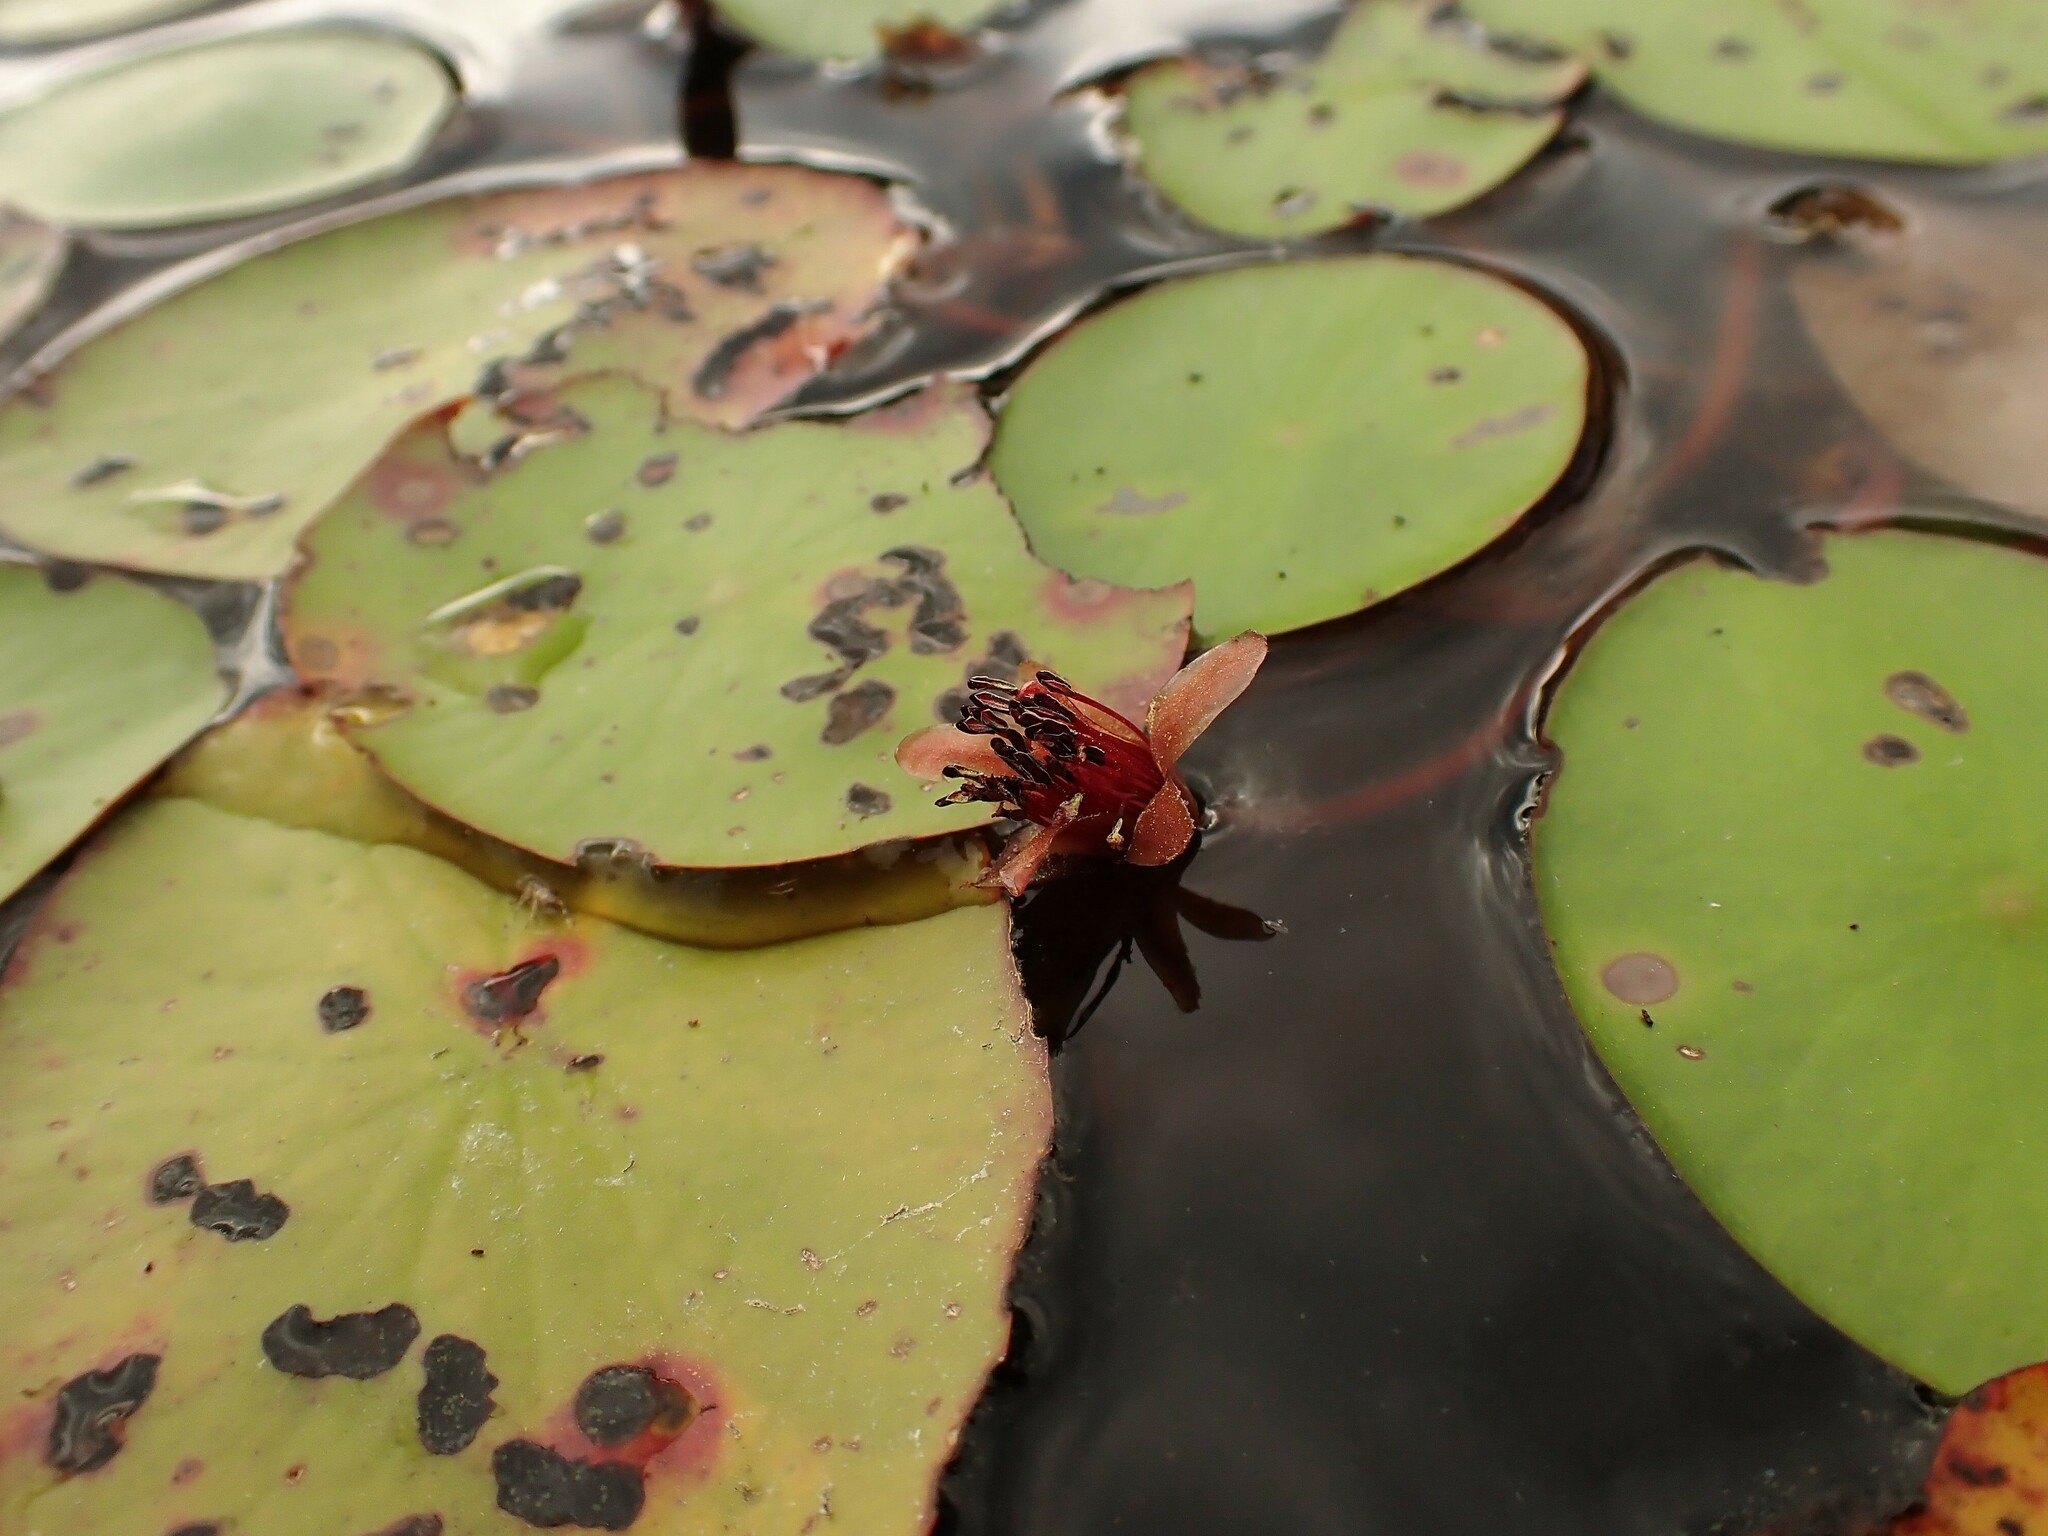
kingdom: Plantae
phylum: Tracheophyta
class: Magnoliopsida
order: Nymphaeales
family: Cabombaceae
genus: Brasenia
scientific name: Brasenia schreberi
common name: Water-shield
